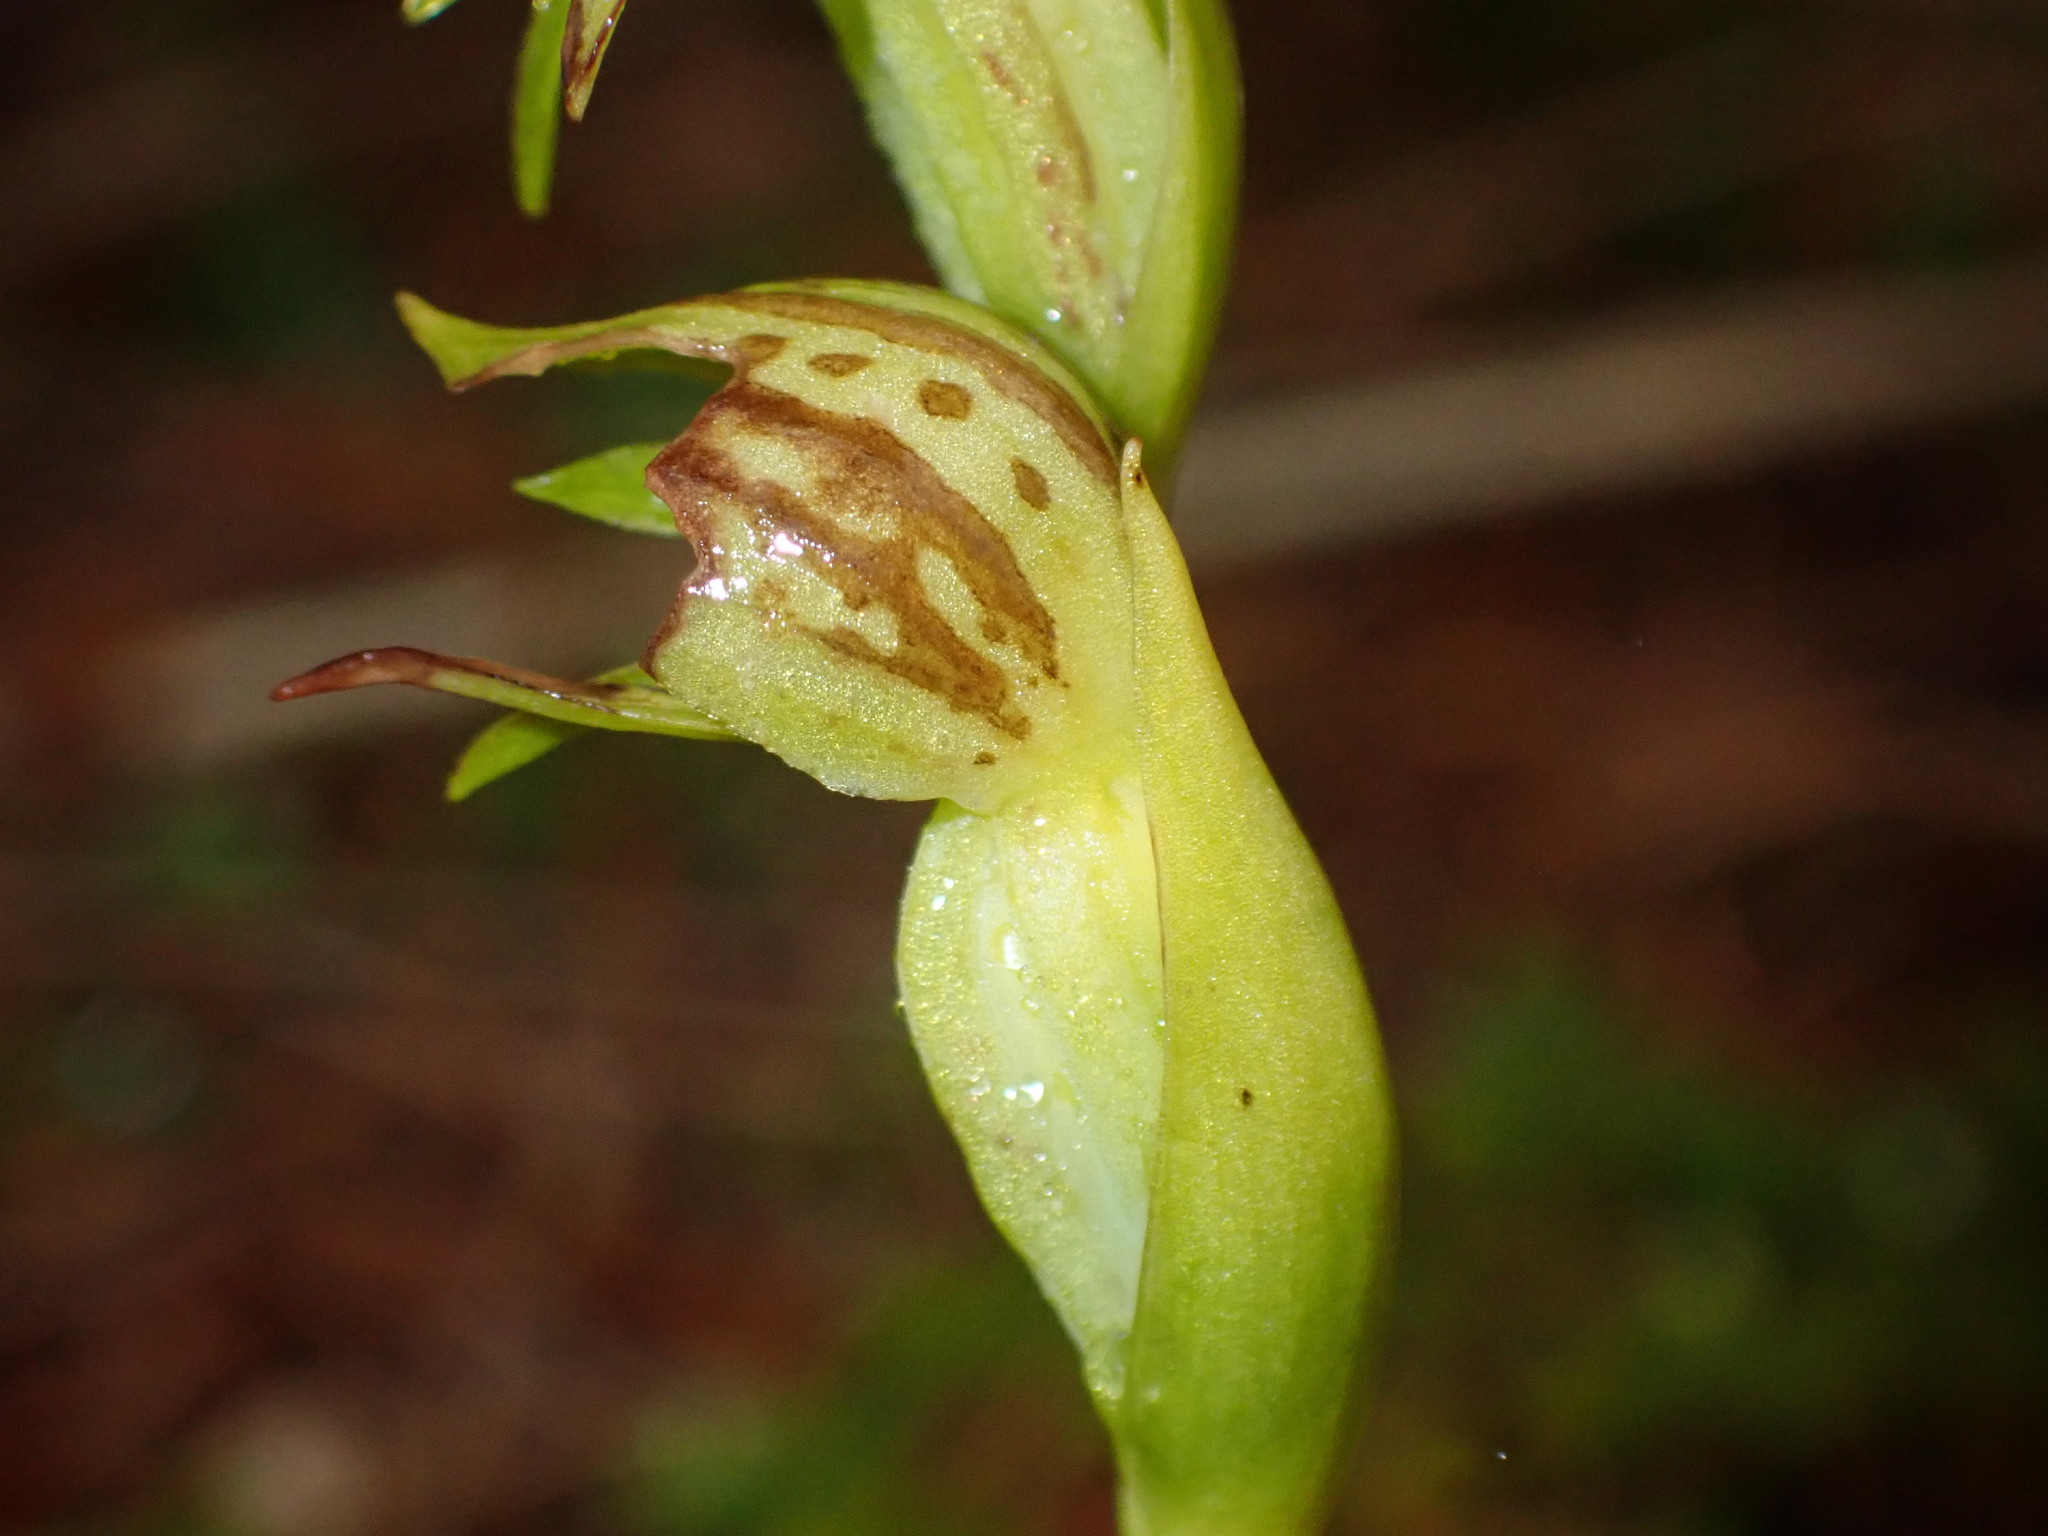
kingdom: Plantae
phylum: Tracheophyta
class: Liliopsida
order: Asparagales
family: Orchidaceae
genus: Waireia
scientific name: Waireia stenopetala
